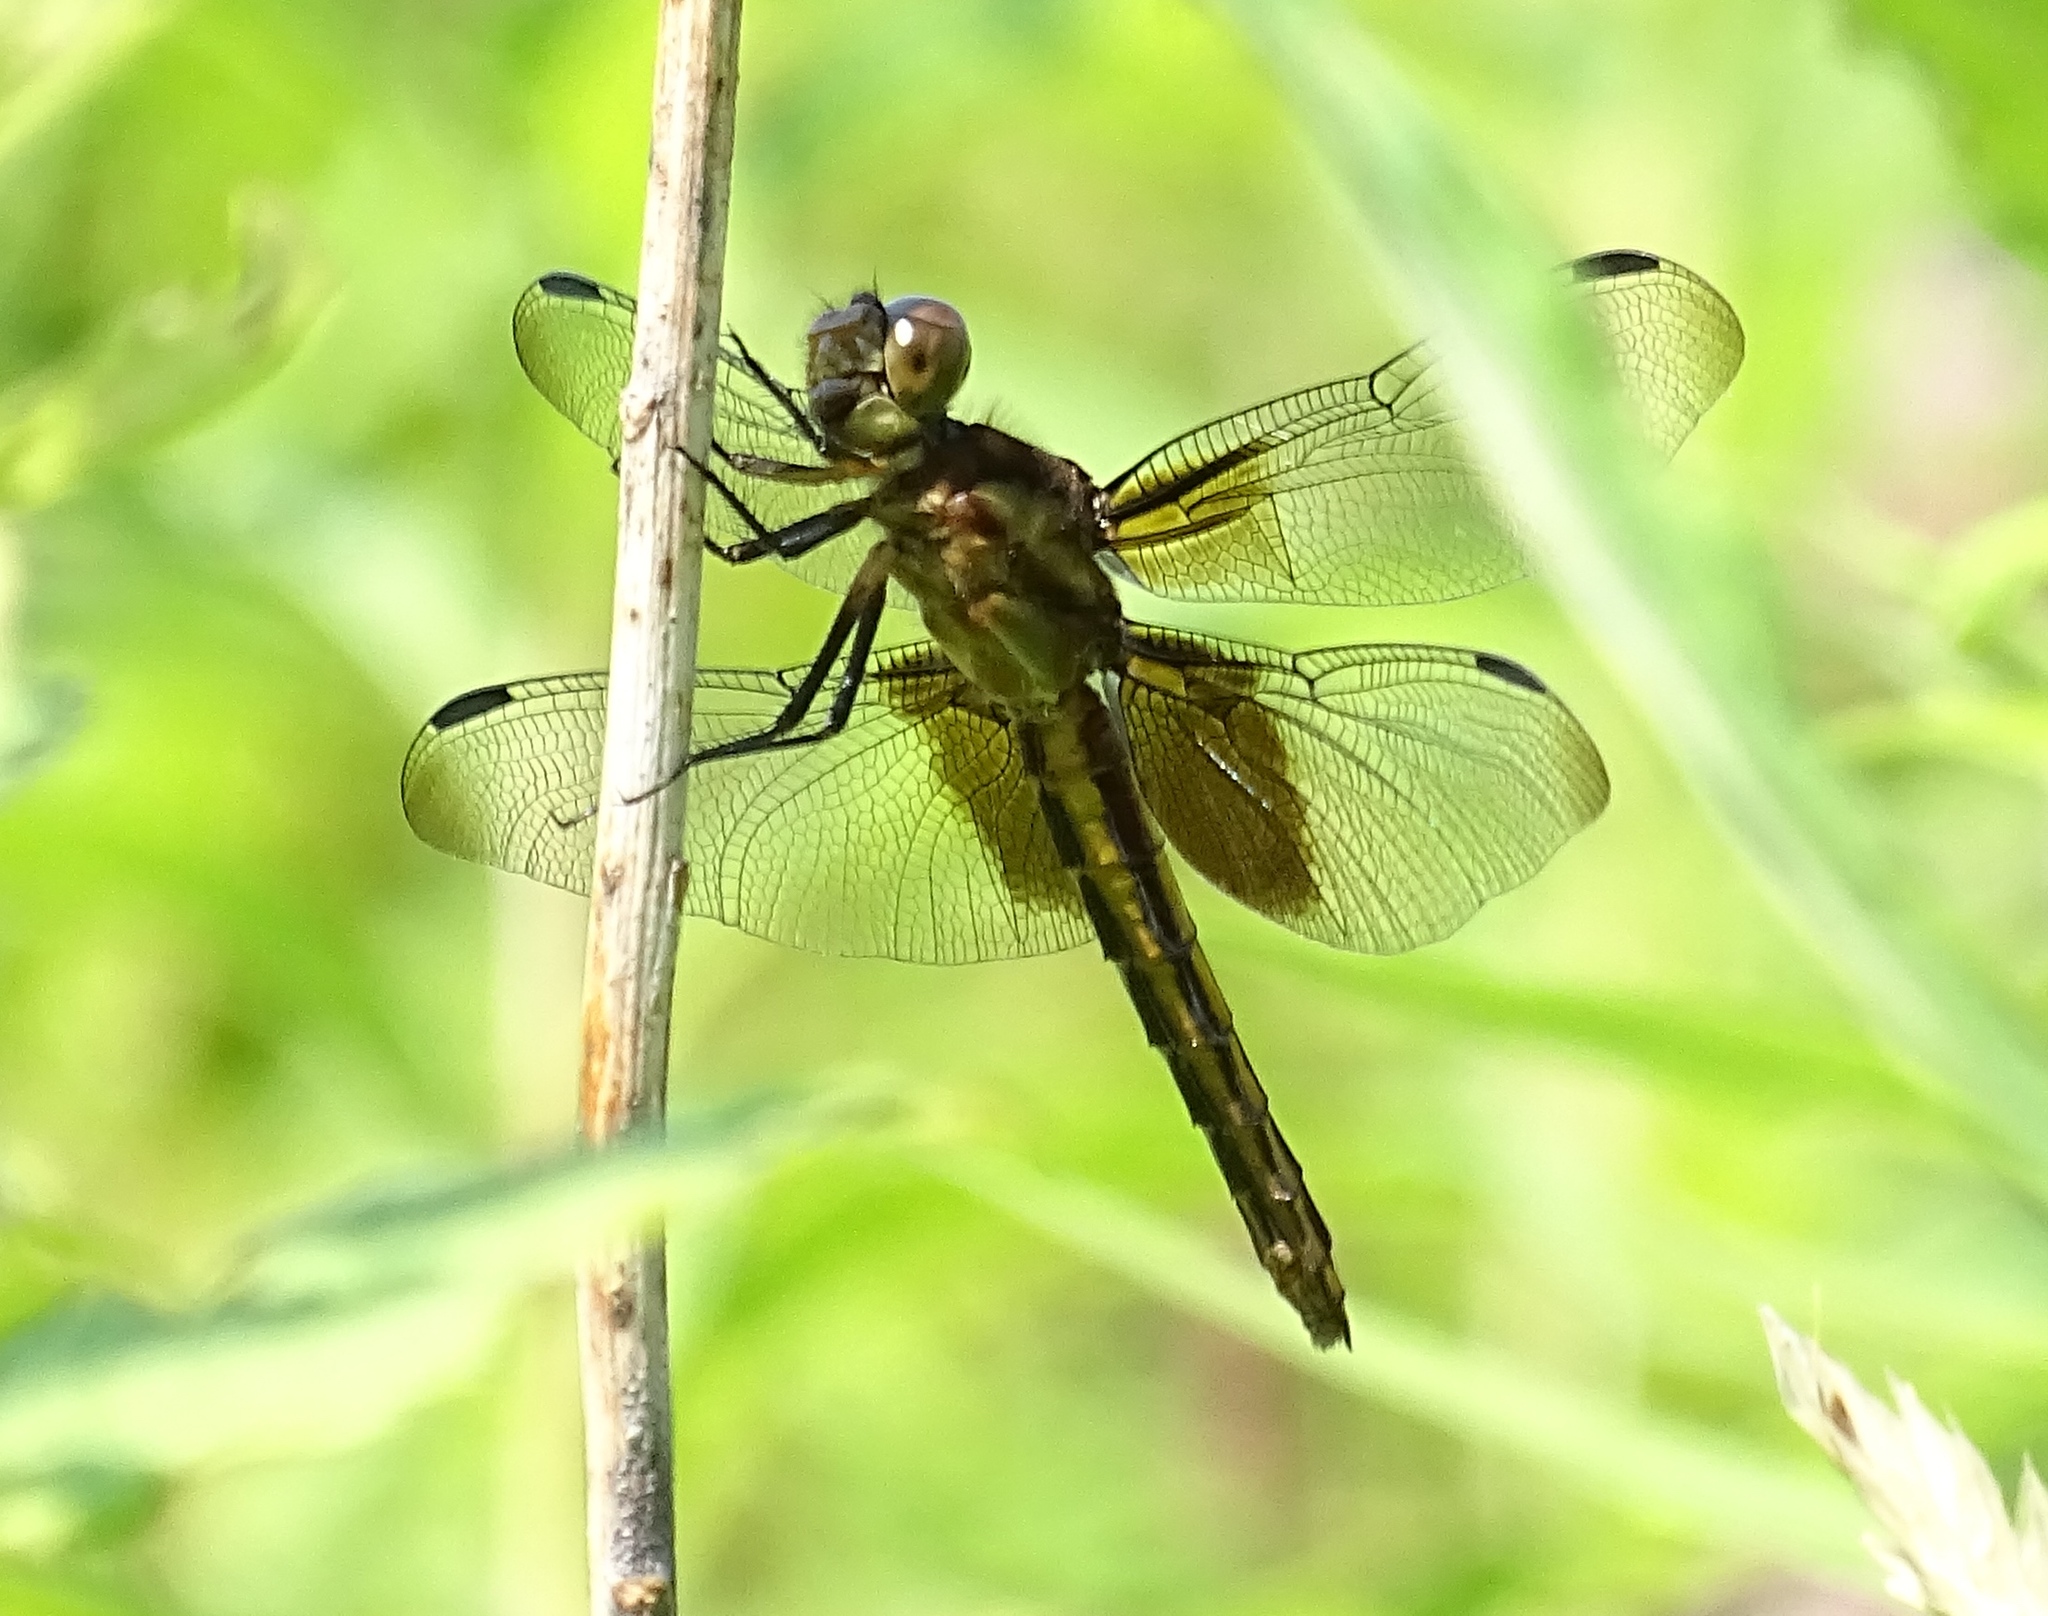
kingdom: Animalia
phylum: Arthropoda
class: Insecta
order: Odonata
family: Libellulidae
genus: Libellula
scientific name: Libellula luctuosa
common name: Widow skimmer
